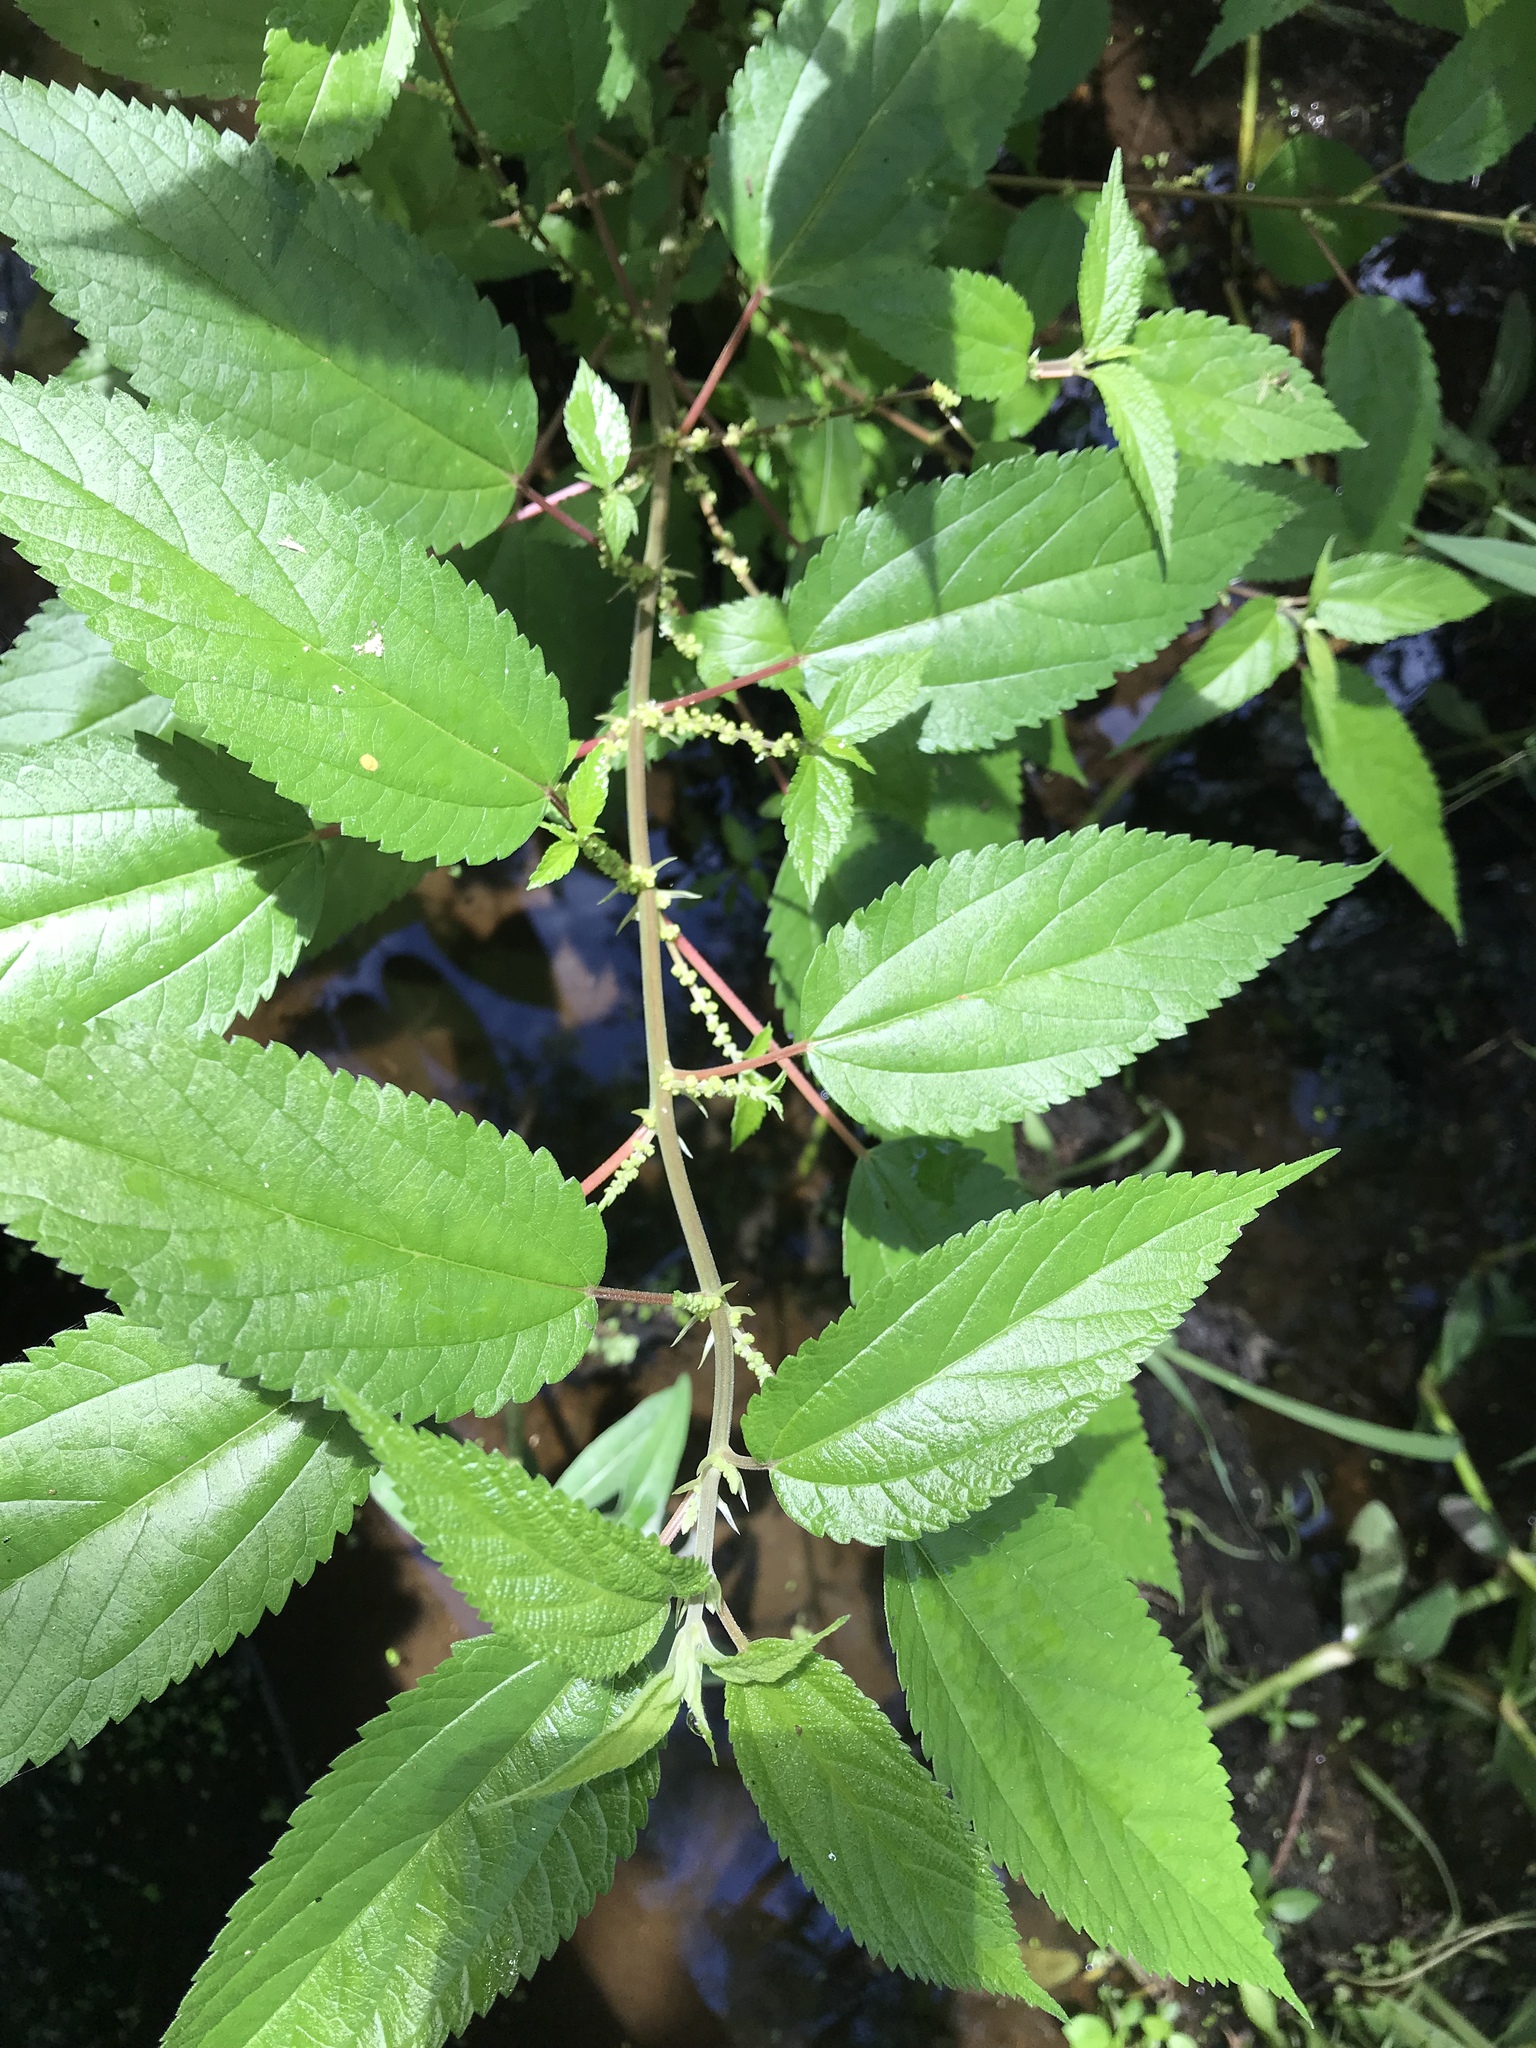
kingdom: Plantae
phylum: Tracheophyta
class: Magnoliopsida
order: Rosales
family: Urticaceae
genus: Boehmeria
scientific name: Boehmeria cylindrica
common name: Bog-hemp
